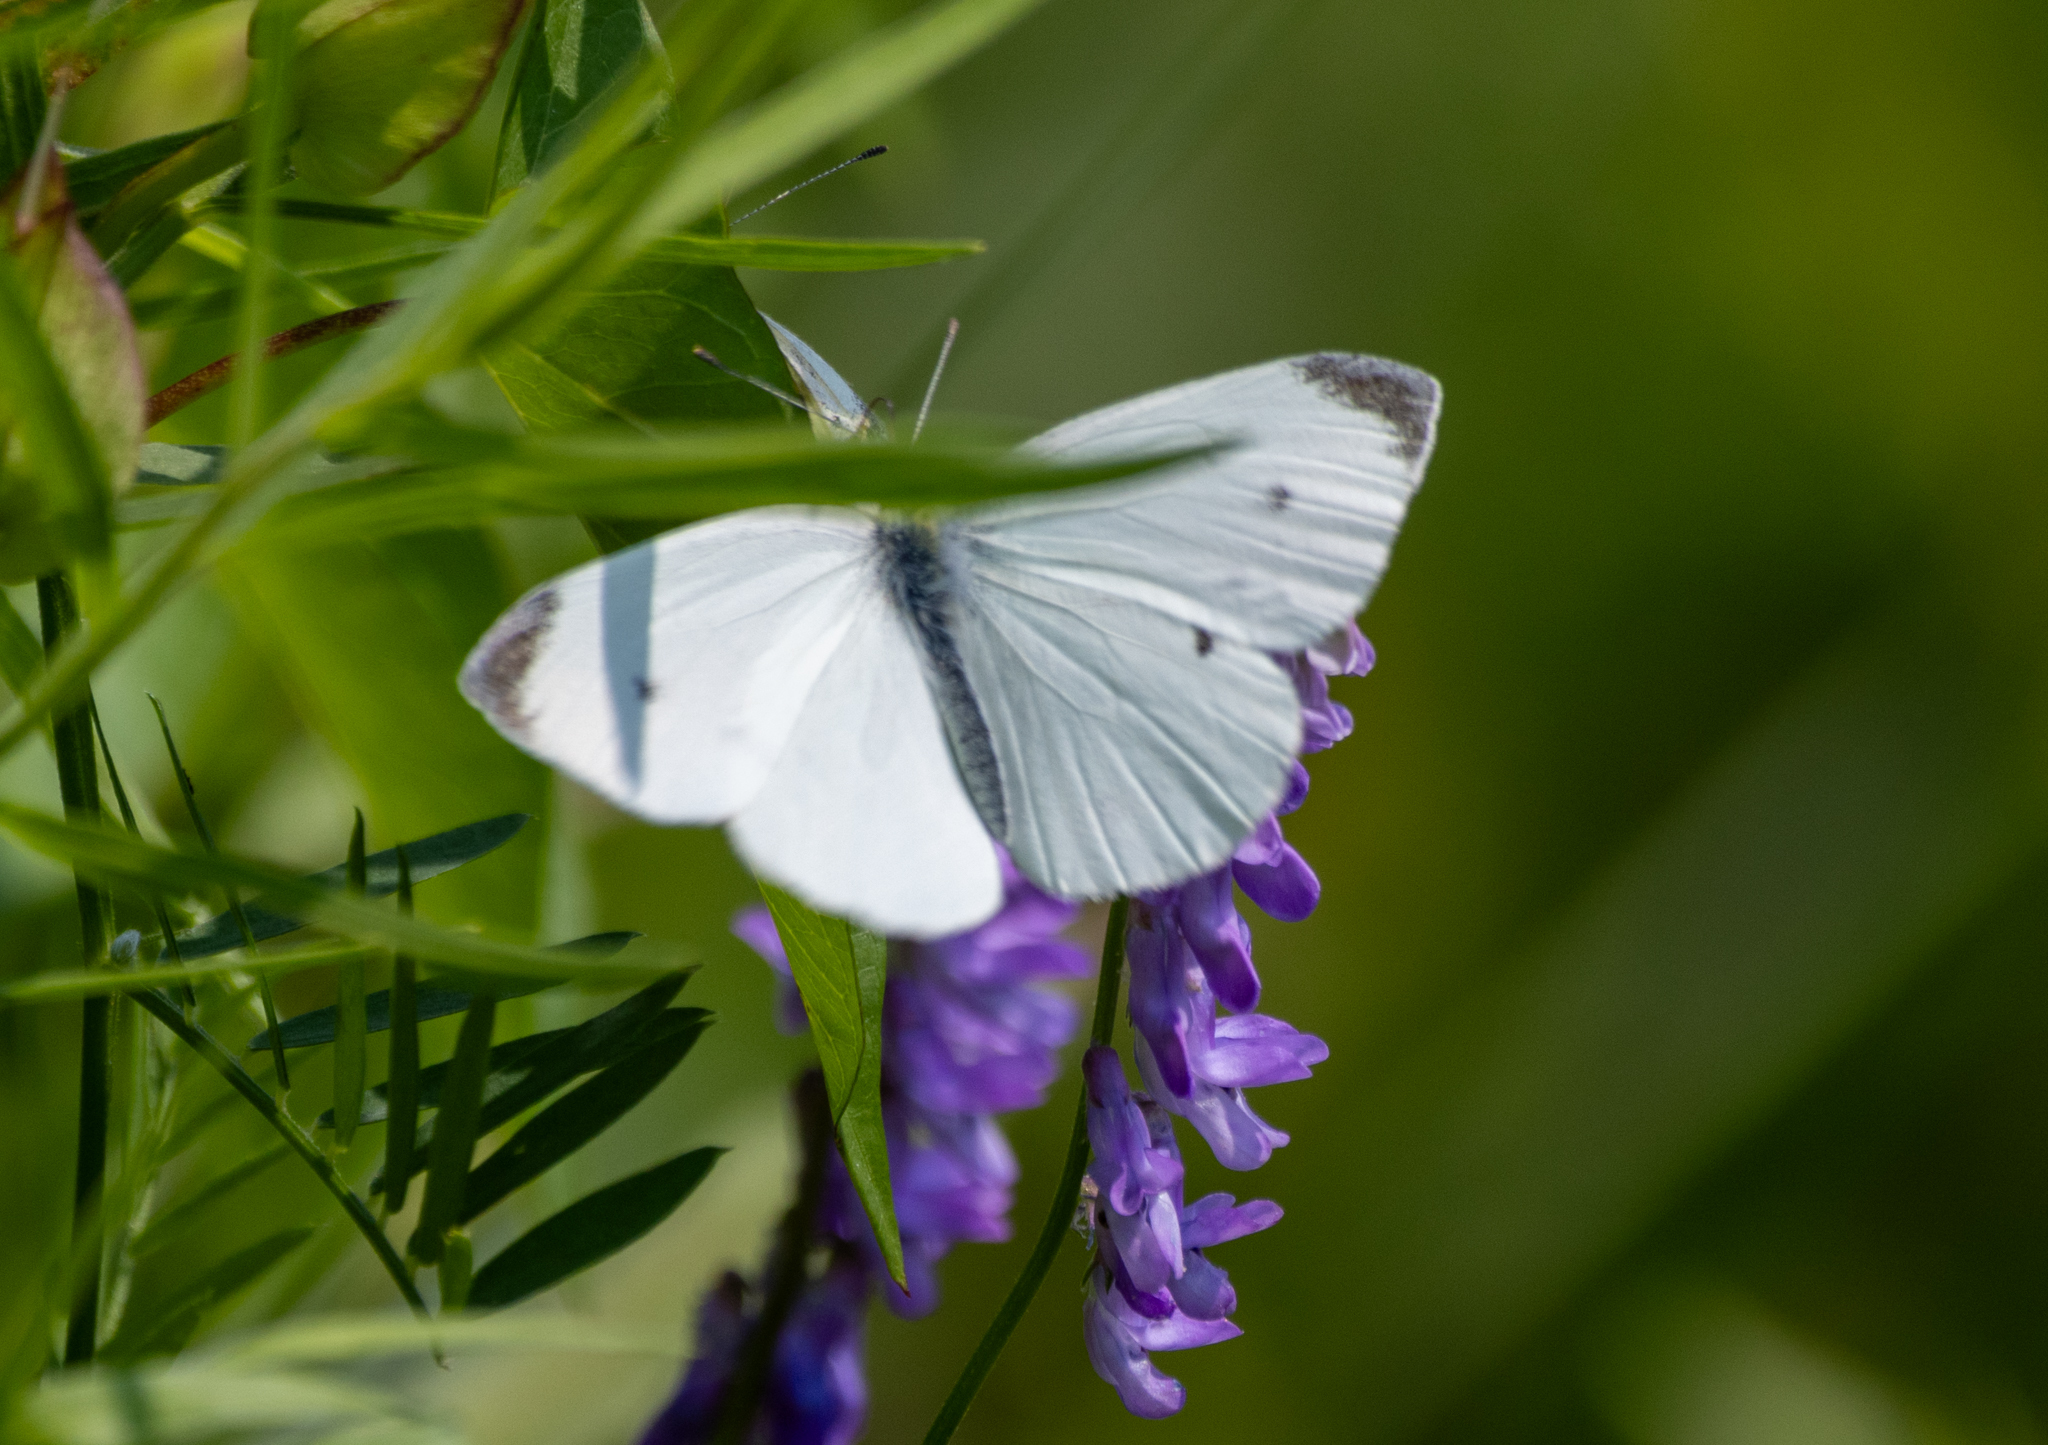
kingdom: Animalia
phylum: Arthropoda
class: Insecta
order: Lepidoptera
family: Pieridae
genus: Pieris
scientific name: Pieris rapae
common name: Small white
